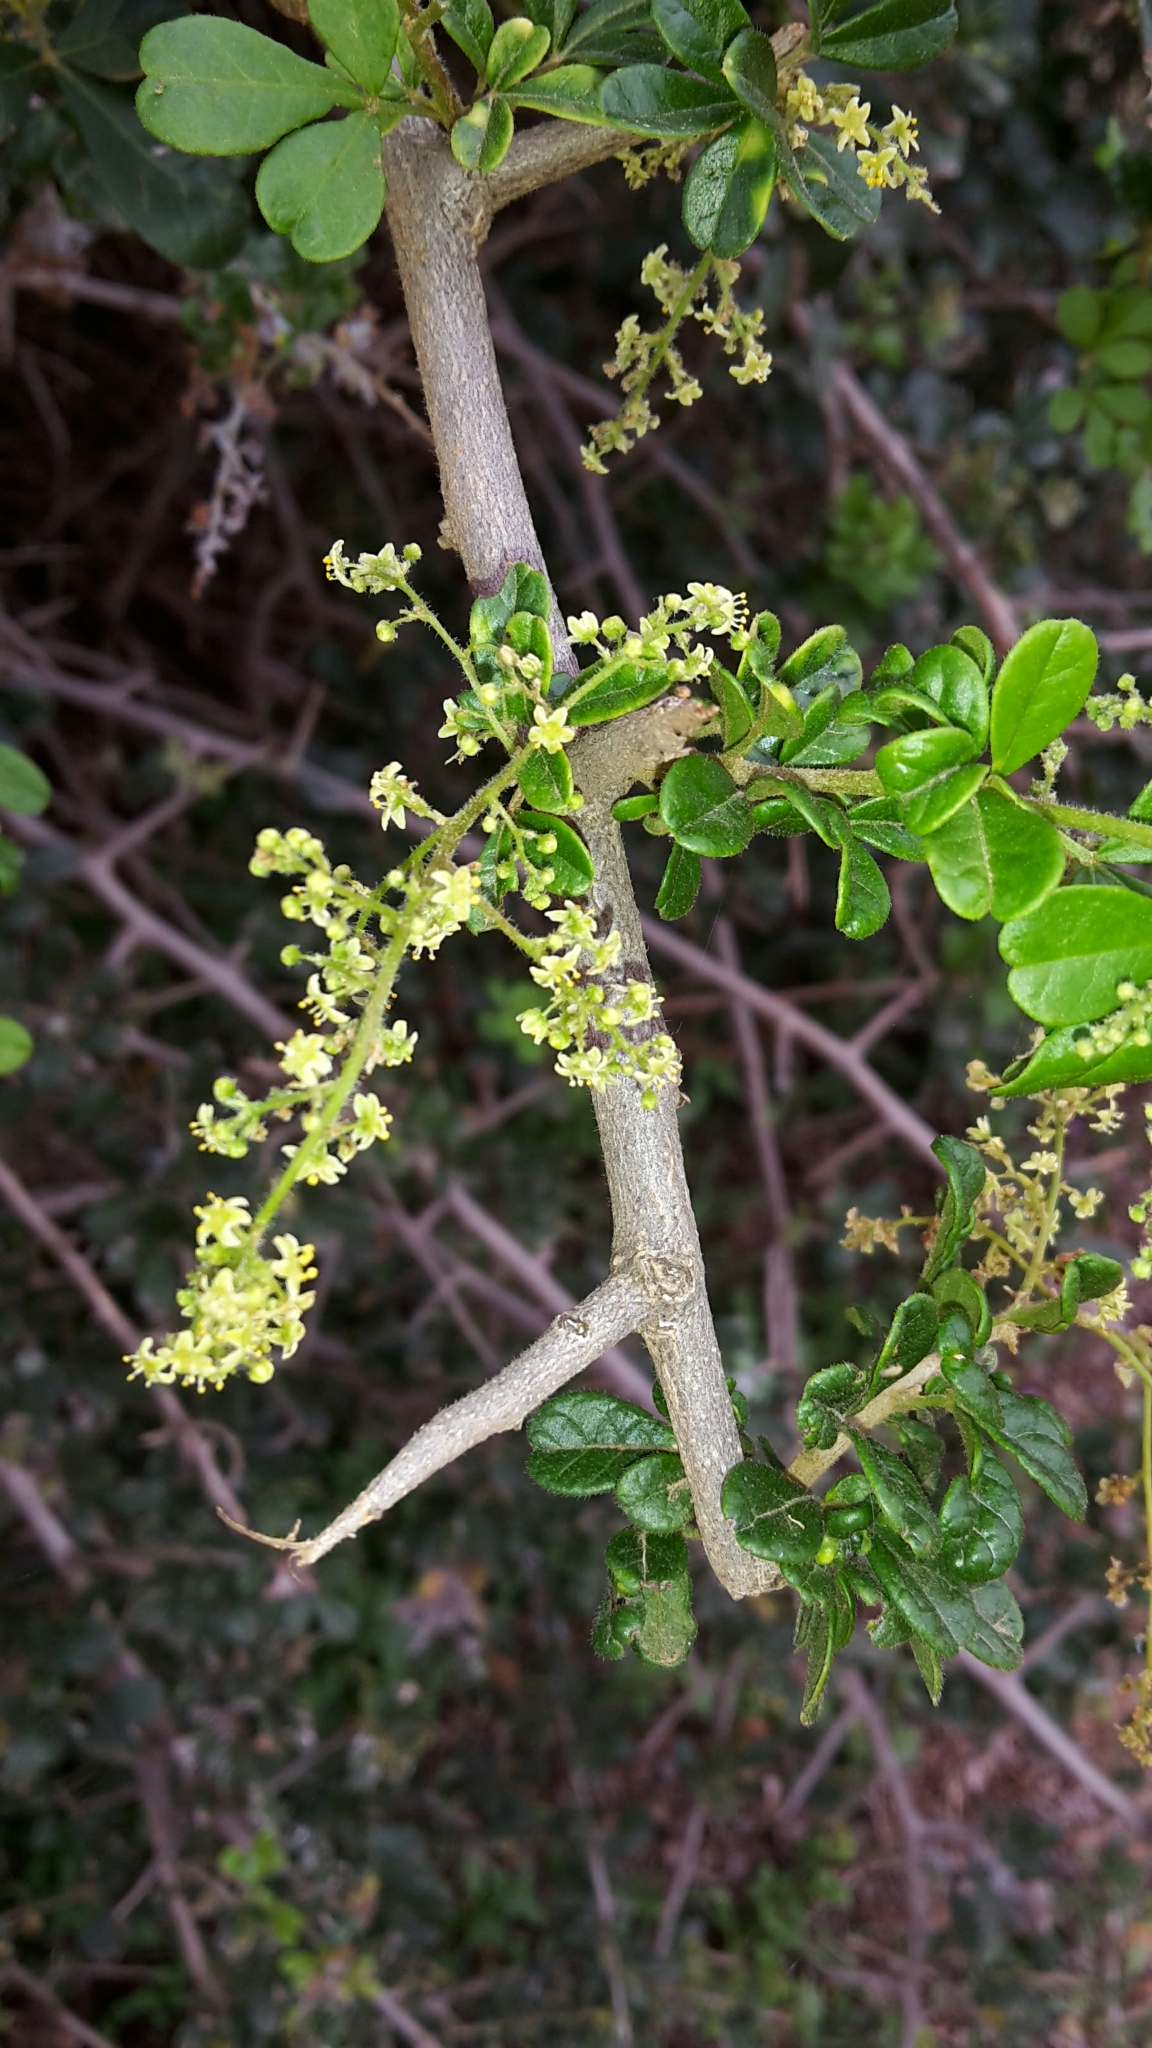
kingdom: Plantae
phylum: Tracheophyta
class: Magnoliopsida
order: Sapindales
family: Anacardiaceae
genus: Searsia
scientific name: Searsia refracta
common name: Thorny crow-berry
